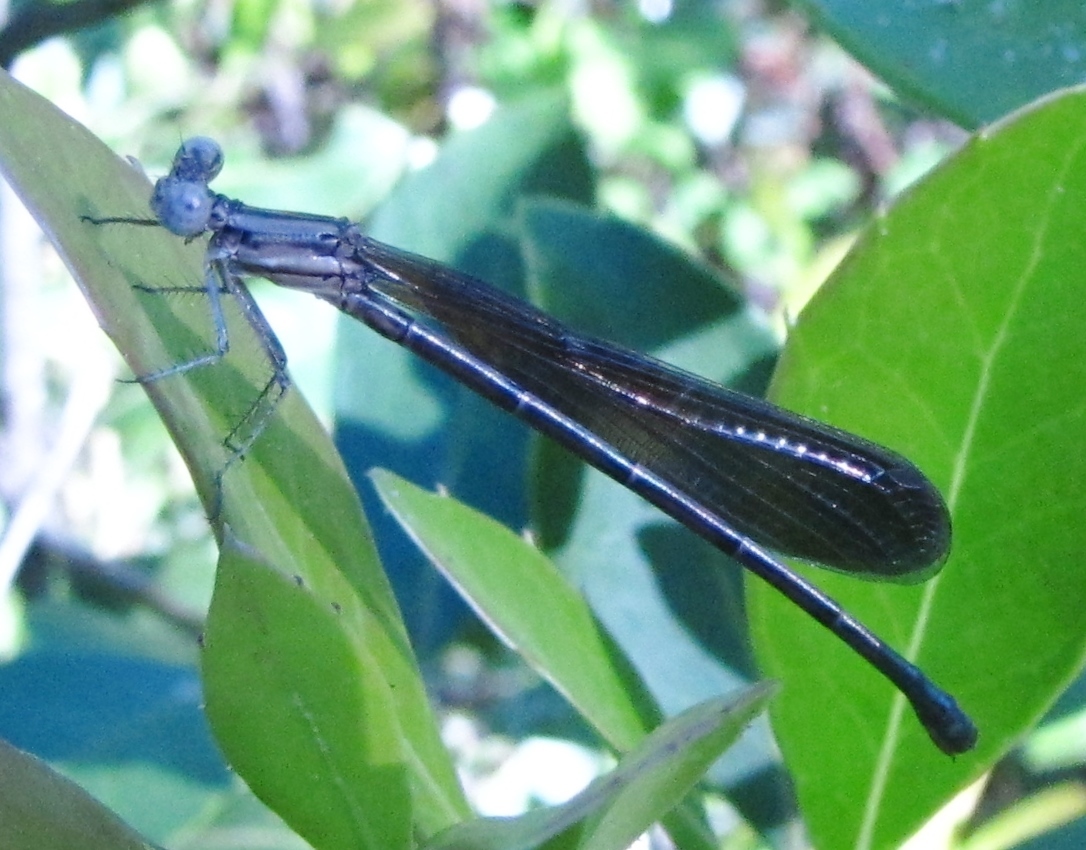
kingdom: Animalia
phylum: Arthropoda
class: Insecta
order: Odonata
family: Coenagrionidae
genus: Argia
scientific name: Argia fumipennis
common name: Variable dancer
